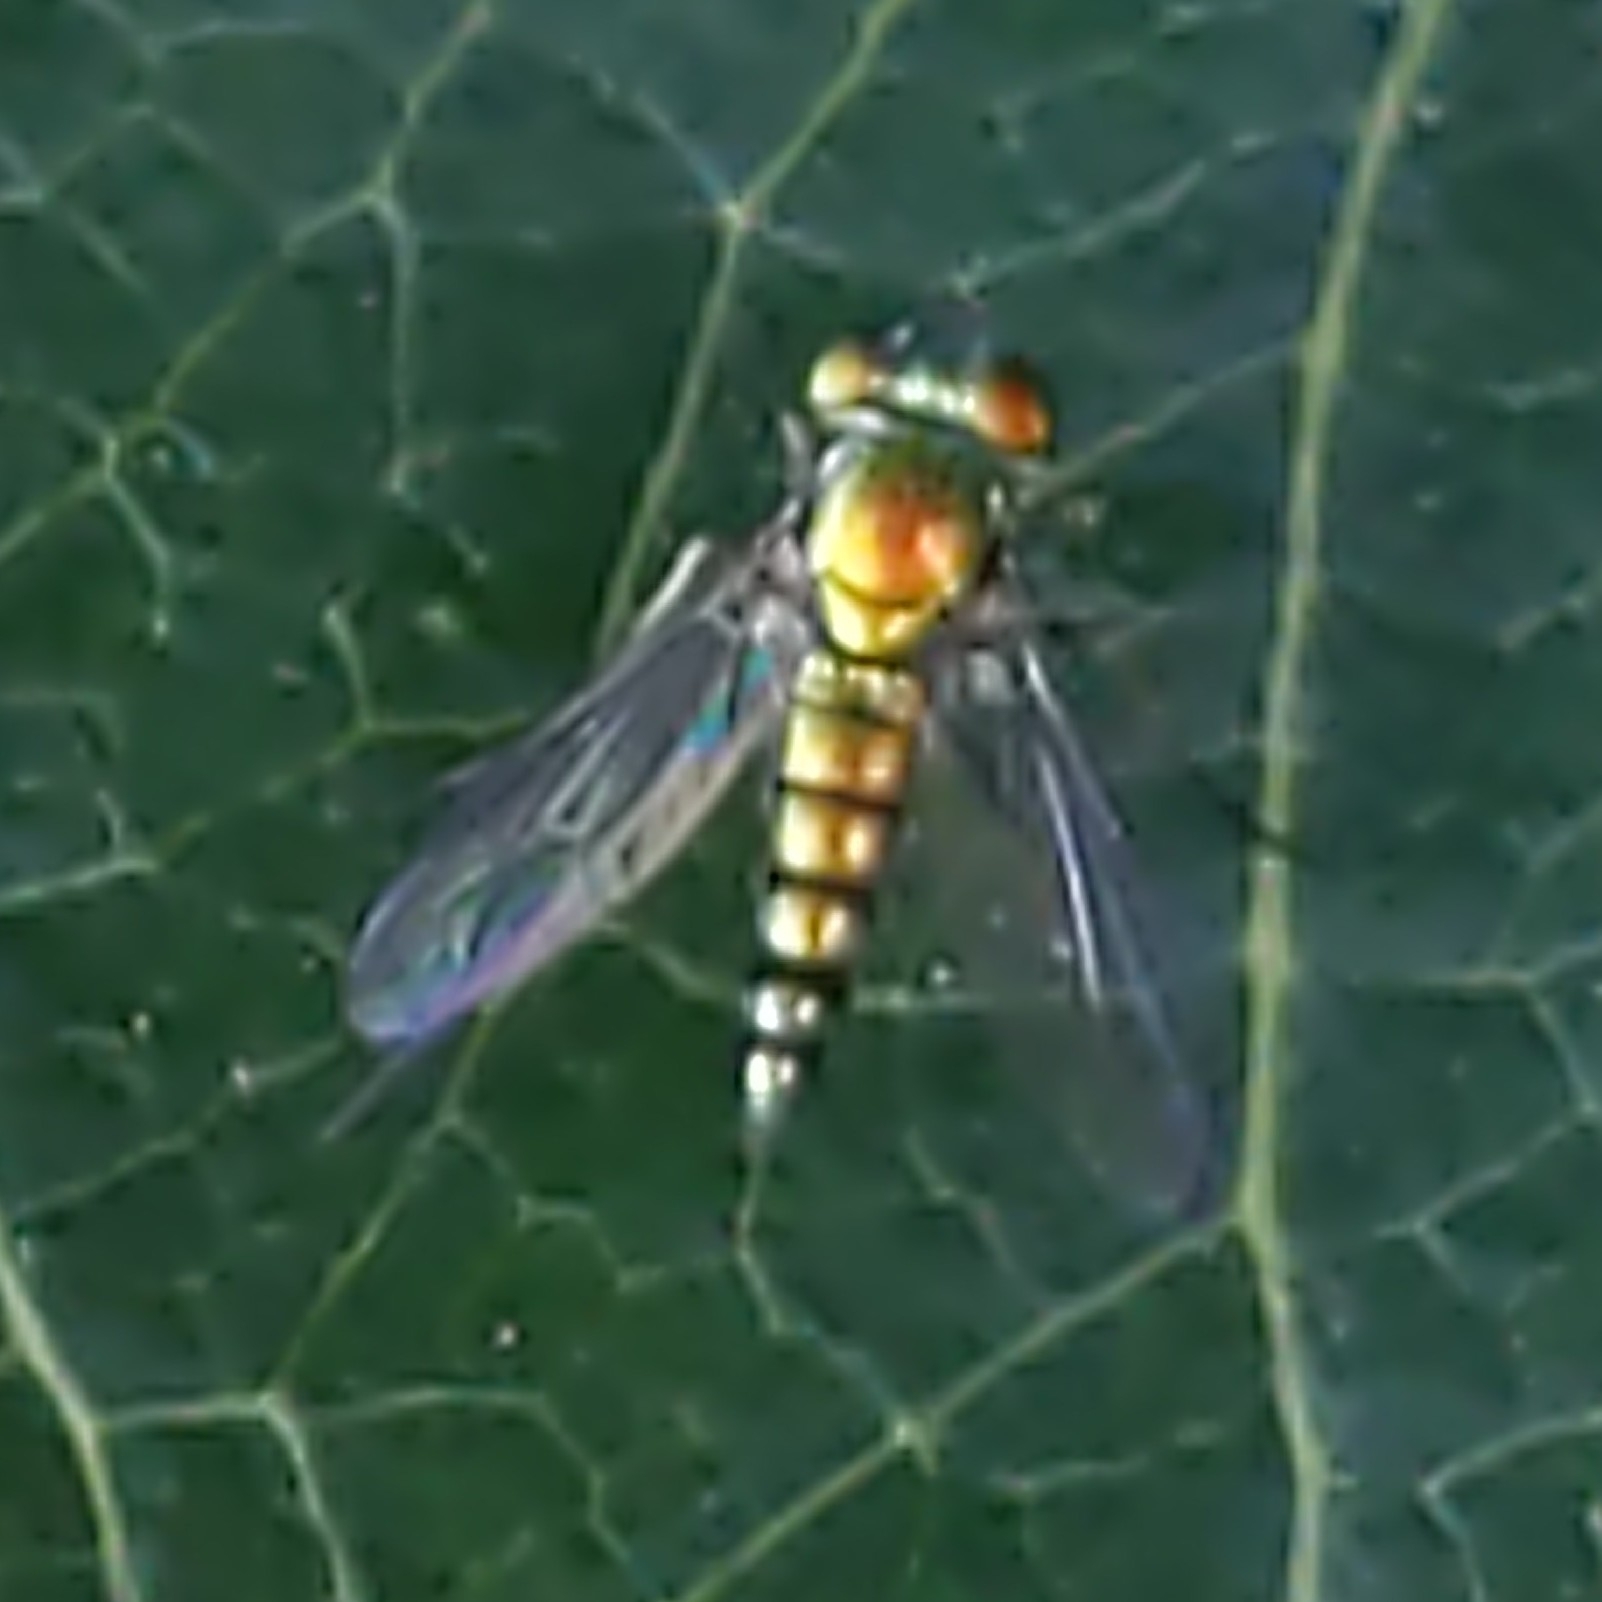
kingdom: Animalia
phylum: Arthropoda
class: Insecta
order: Diptera
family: Dolichopodidae
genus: Condylostylus
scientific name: Condylostylus
